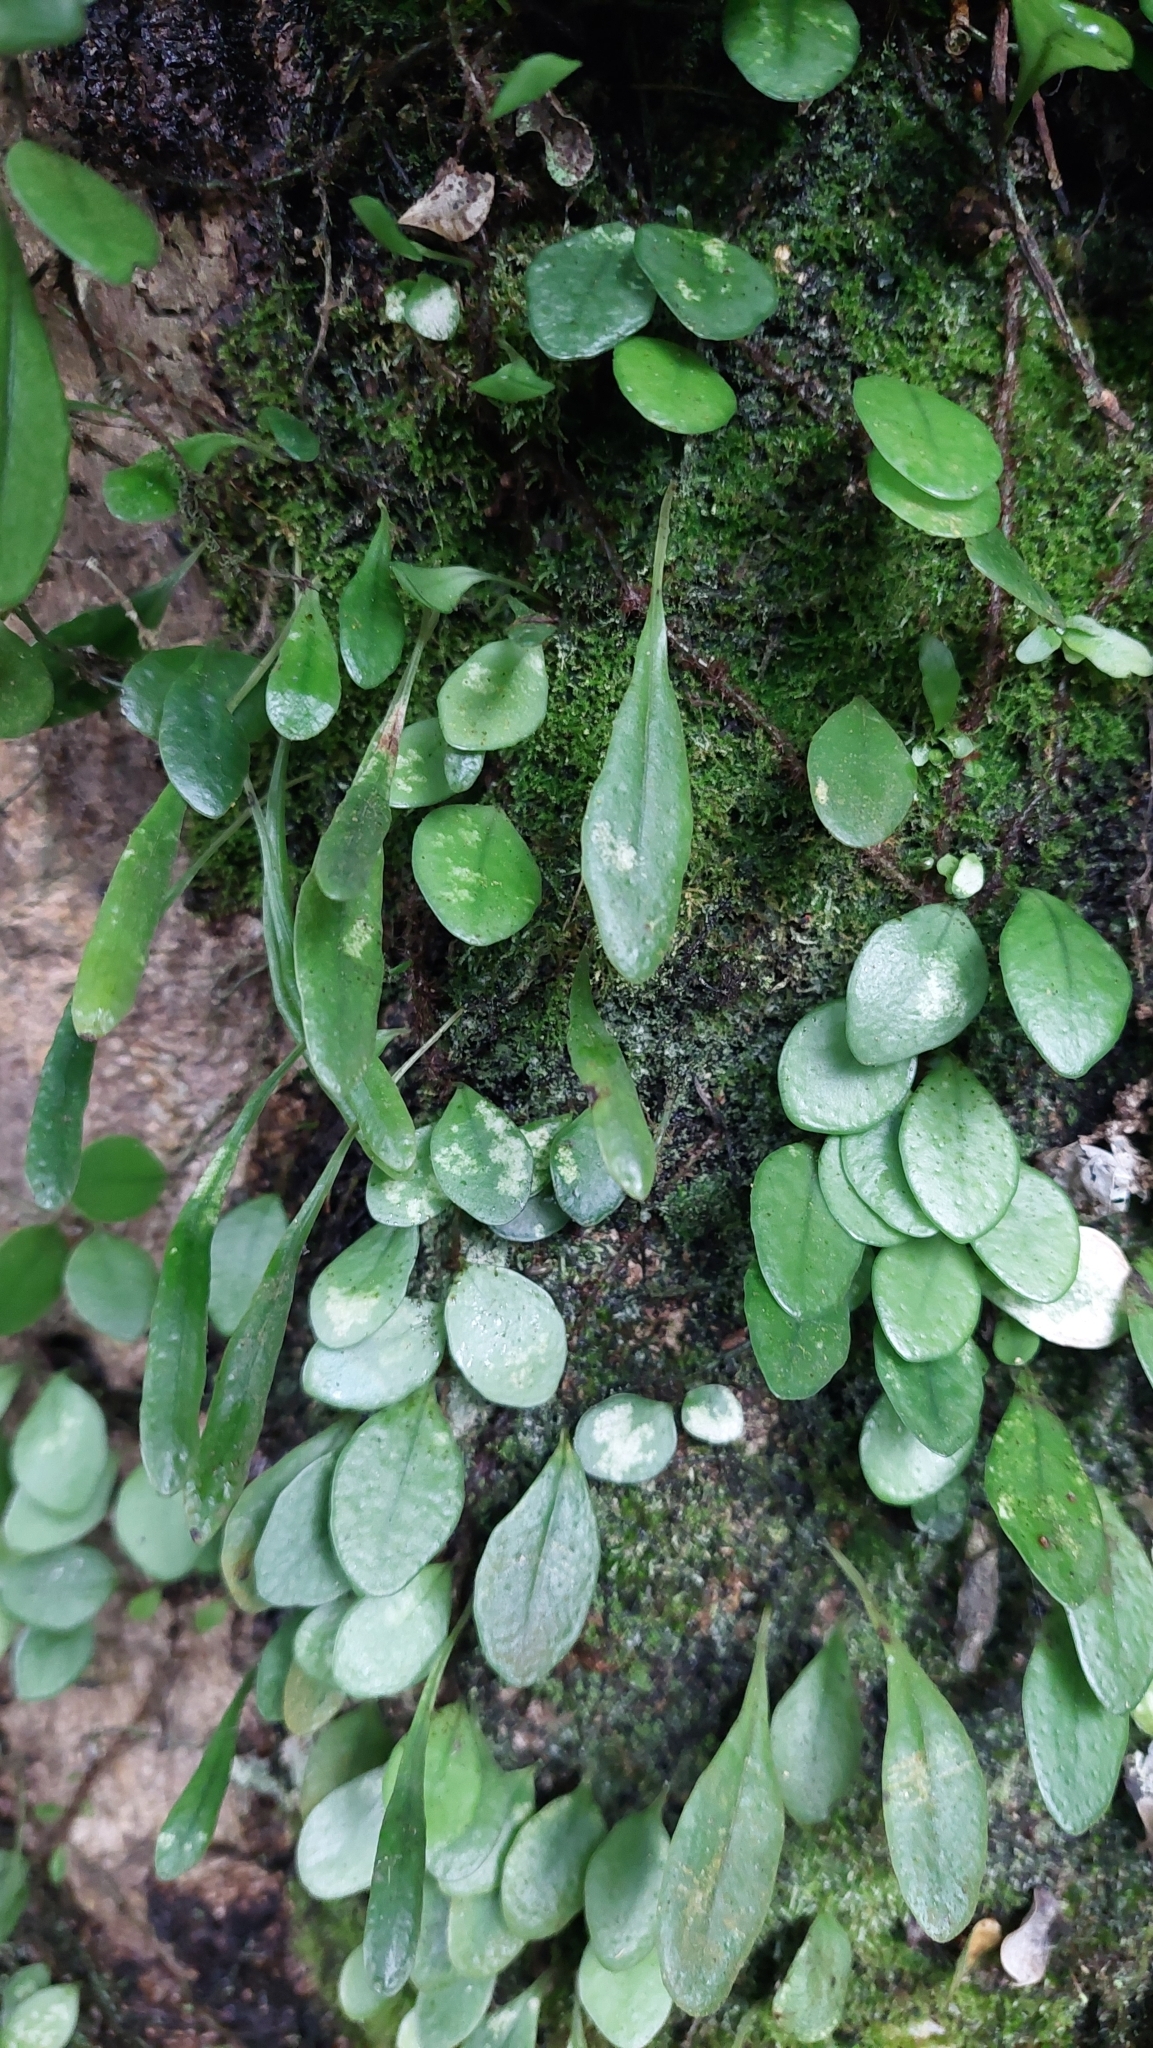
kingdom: Plantae
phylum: Tracheophyta
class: Polypodiopsida
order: Polypodiales
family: Polypodiaceae
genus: Lepisorus
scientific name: Lepisorus microphyllus
